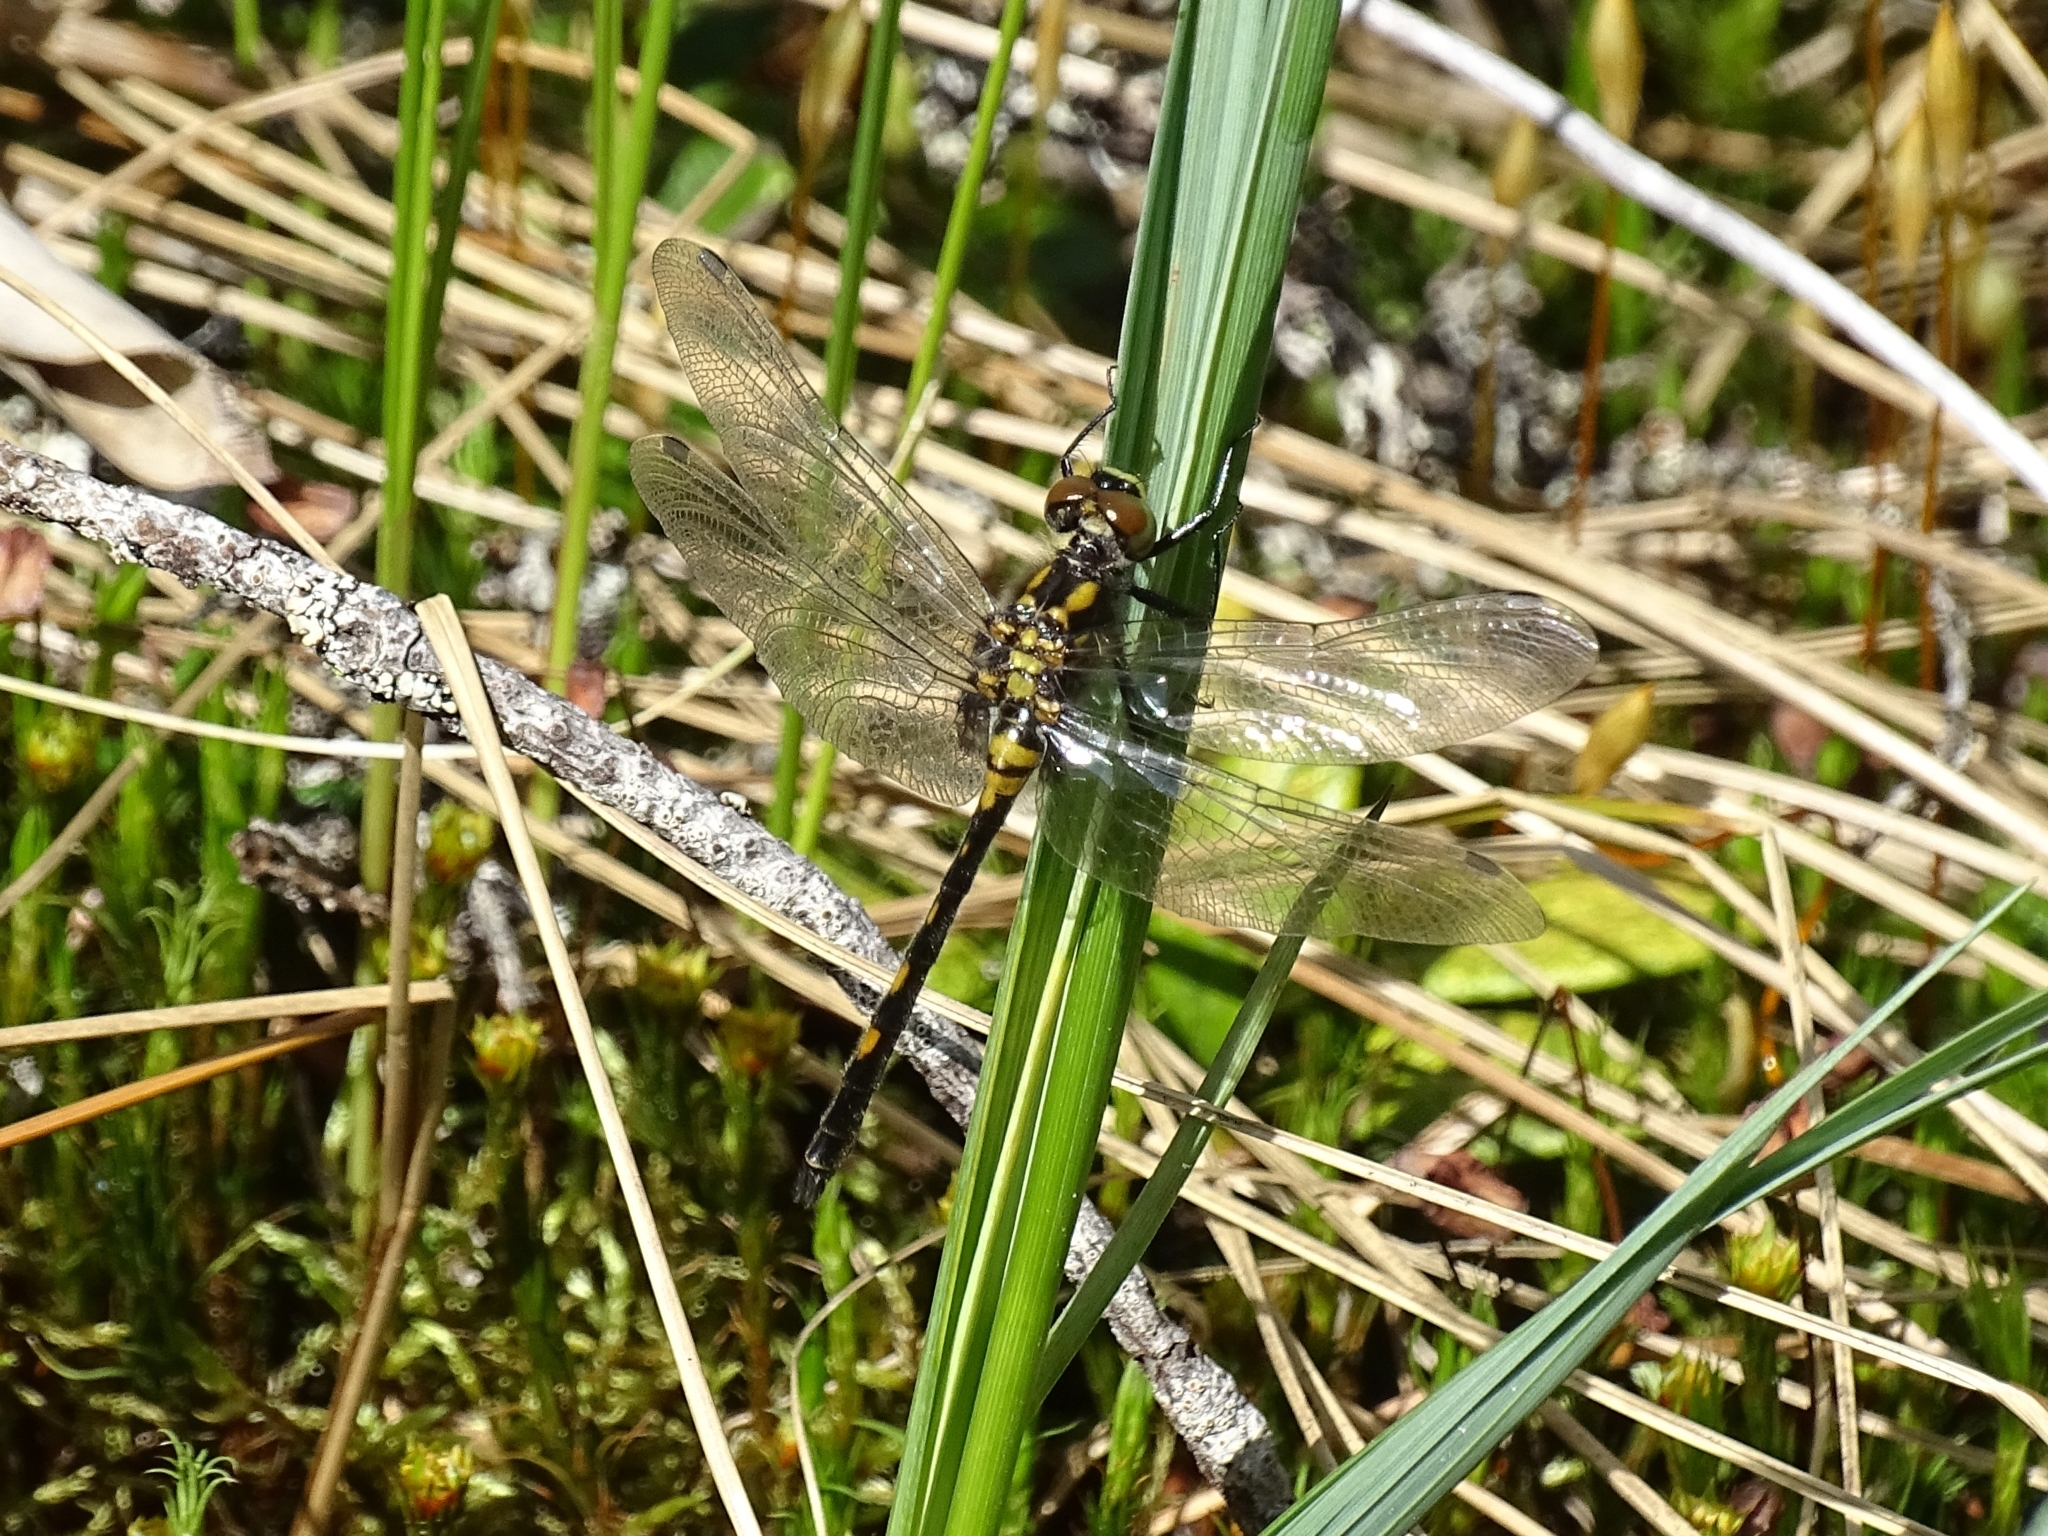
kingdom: Animalia
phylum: Arthropoda
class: Insecta
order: Odonata
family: Libellulidae
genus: Leucorrhinia
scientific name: Leucorrhinia dubia
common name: White-faced darter
